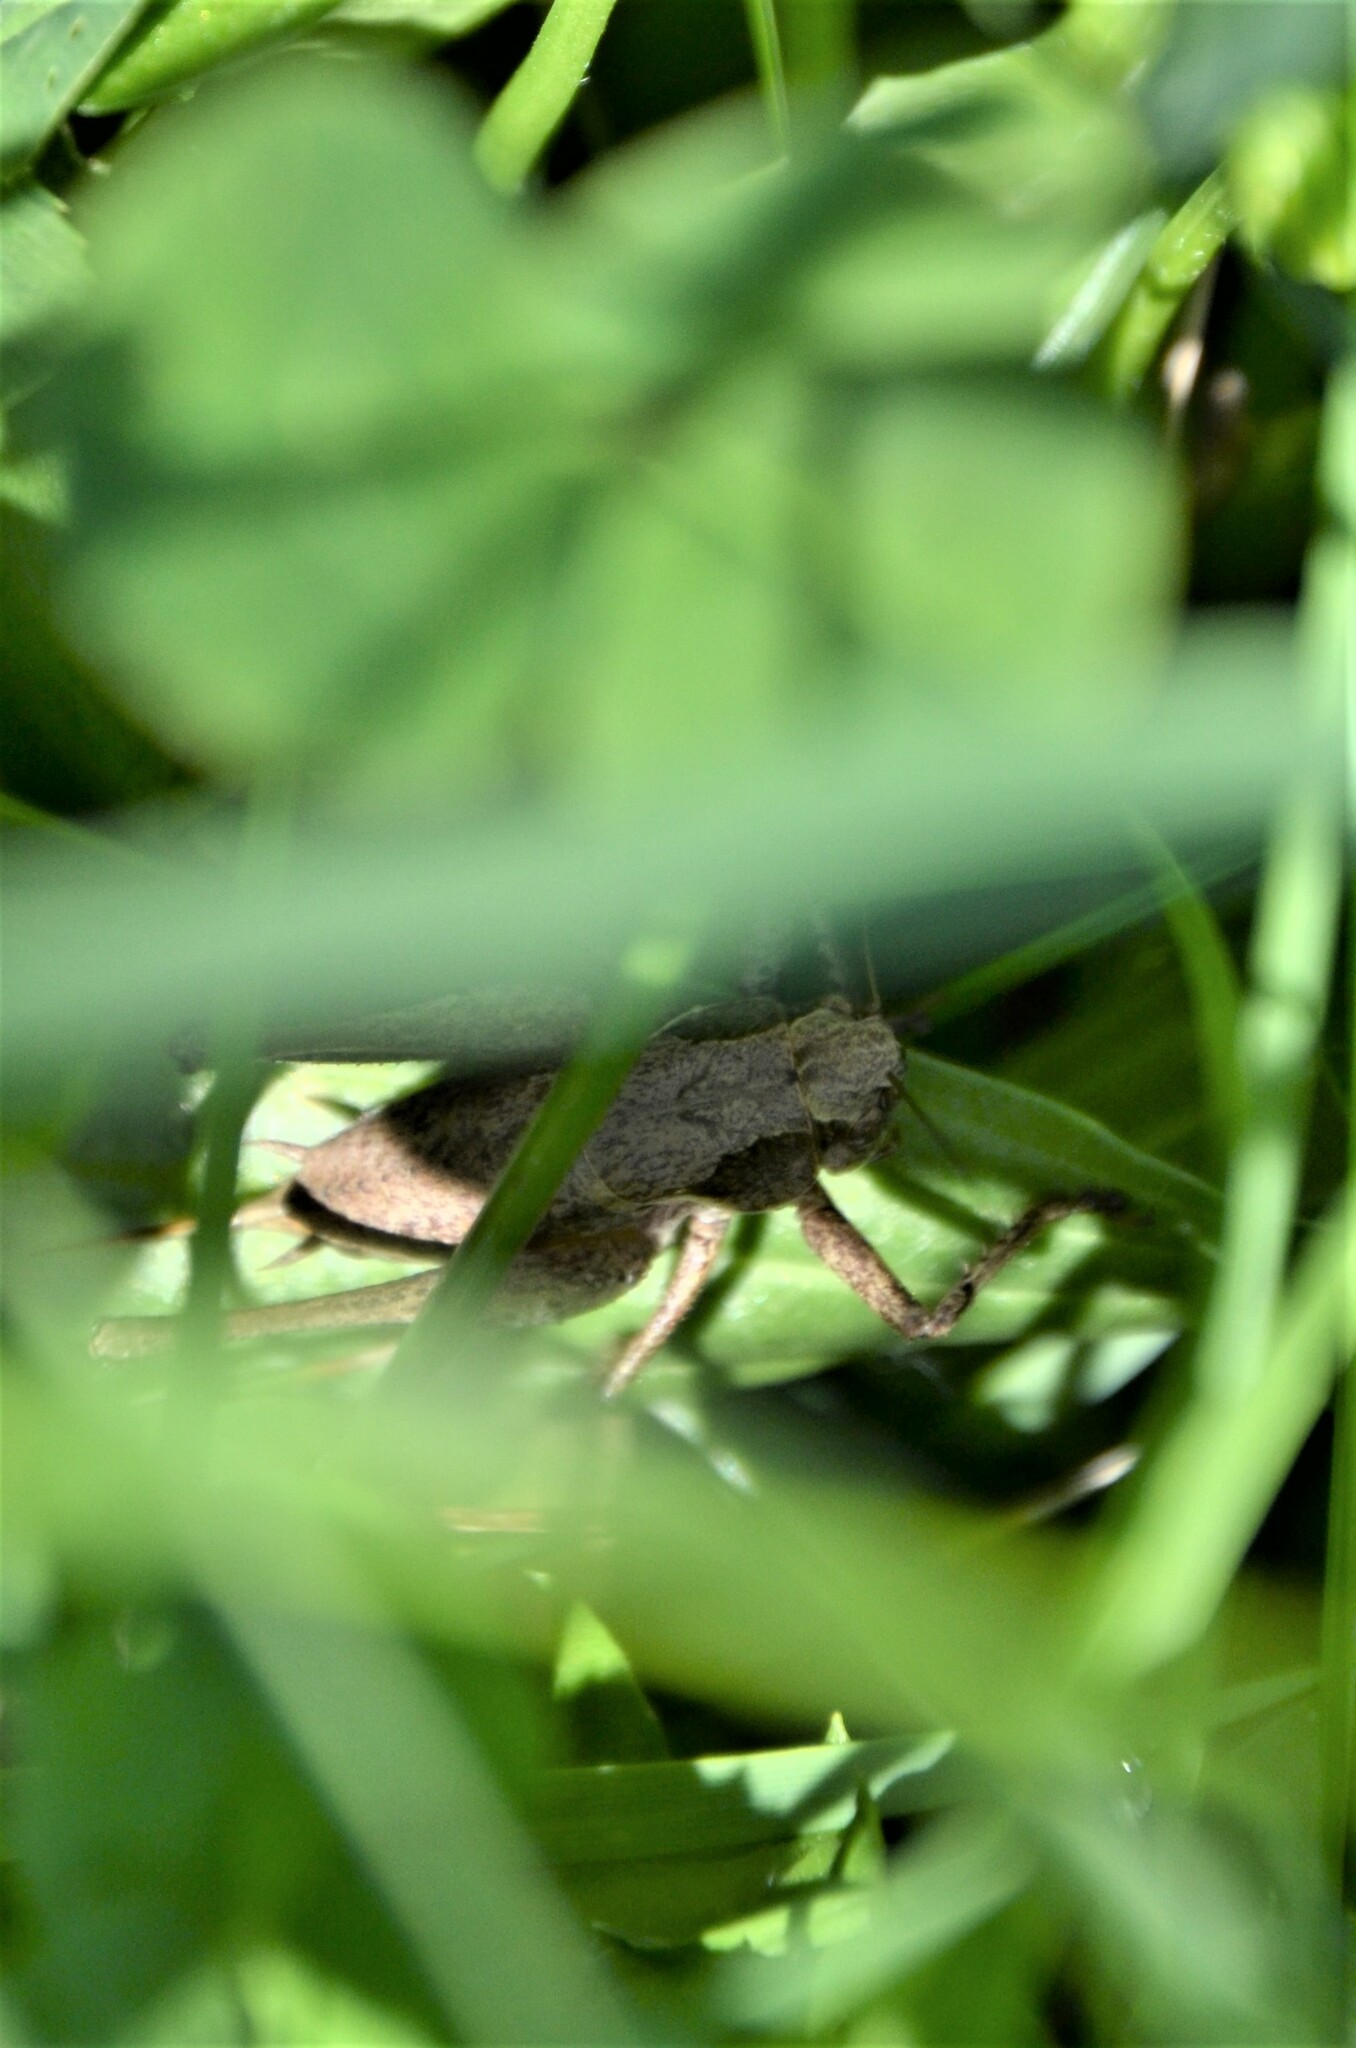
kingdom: Animalia
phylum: Arthropoda
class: Insecta
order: Orthoptera
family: Tettigoniidae
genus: Pholidoptera
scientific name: Pholidoptera griseoaptera
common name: Dark bush-cricket
